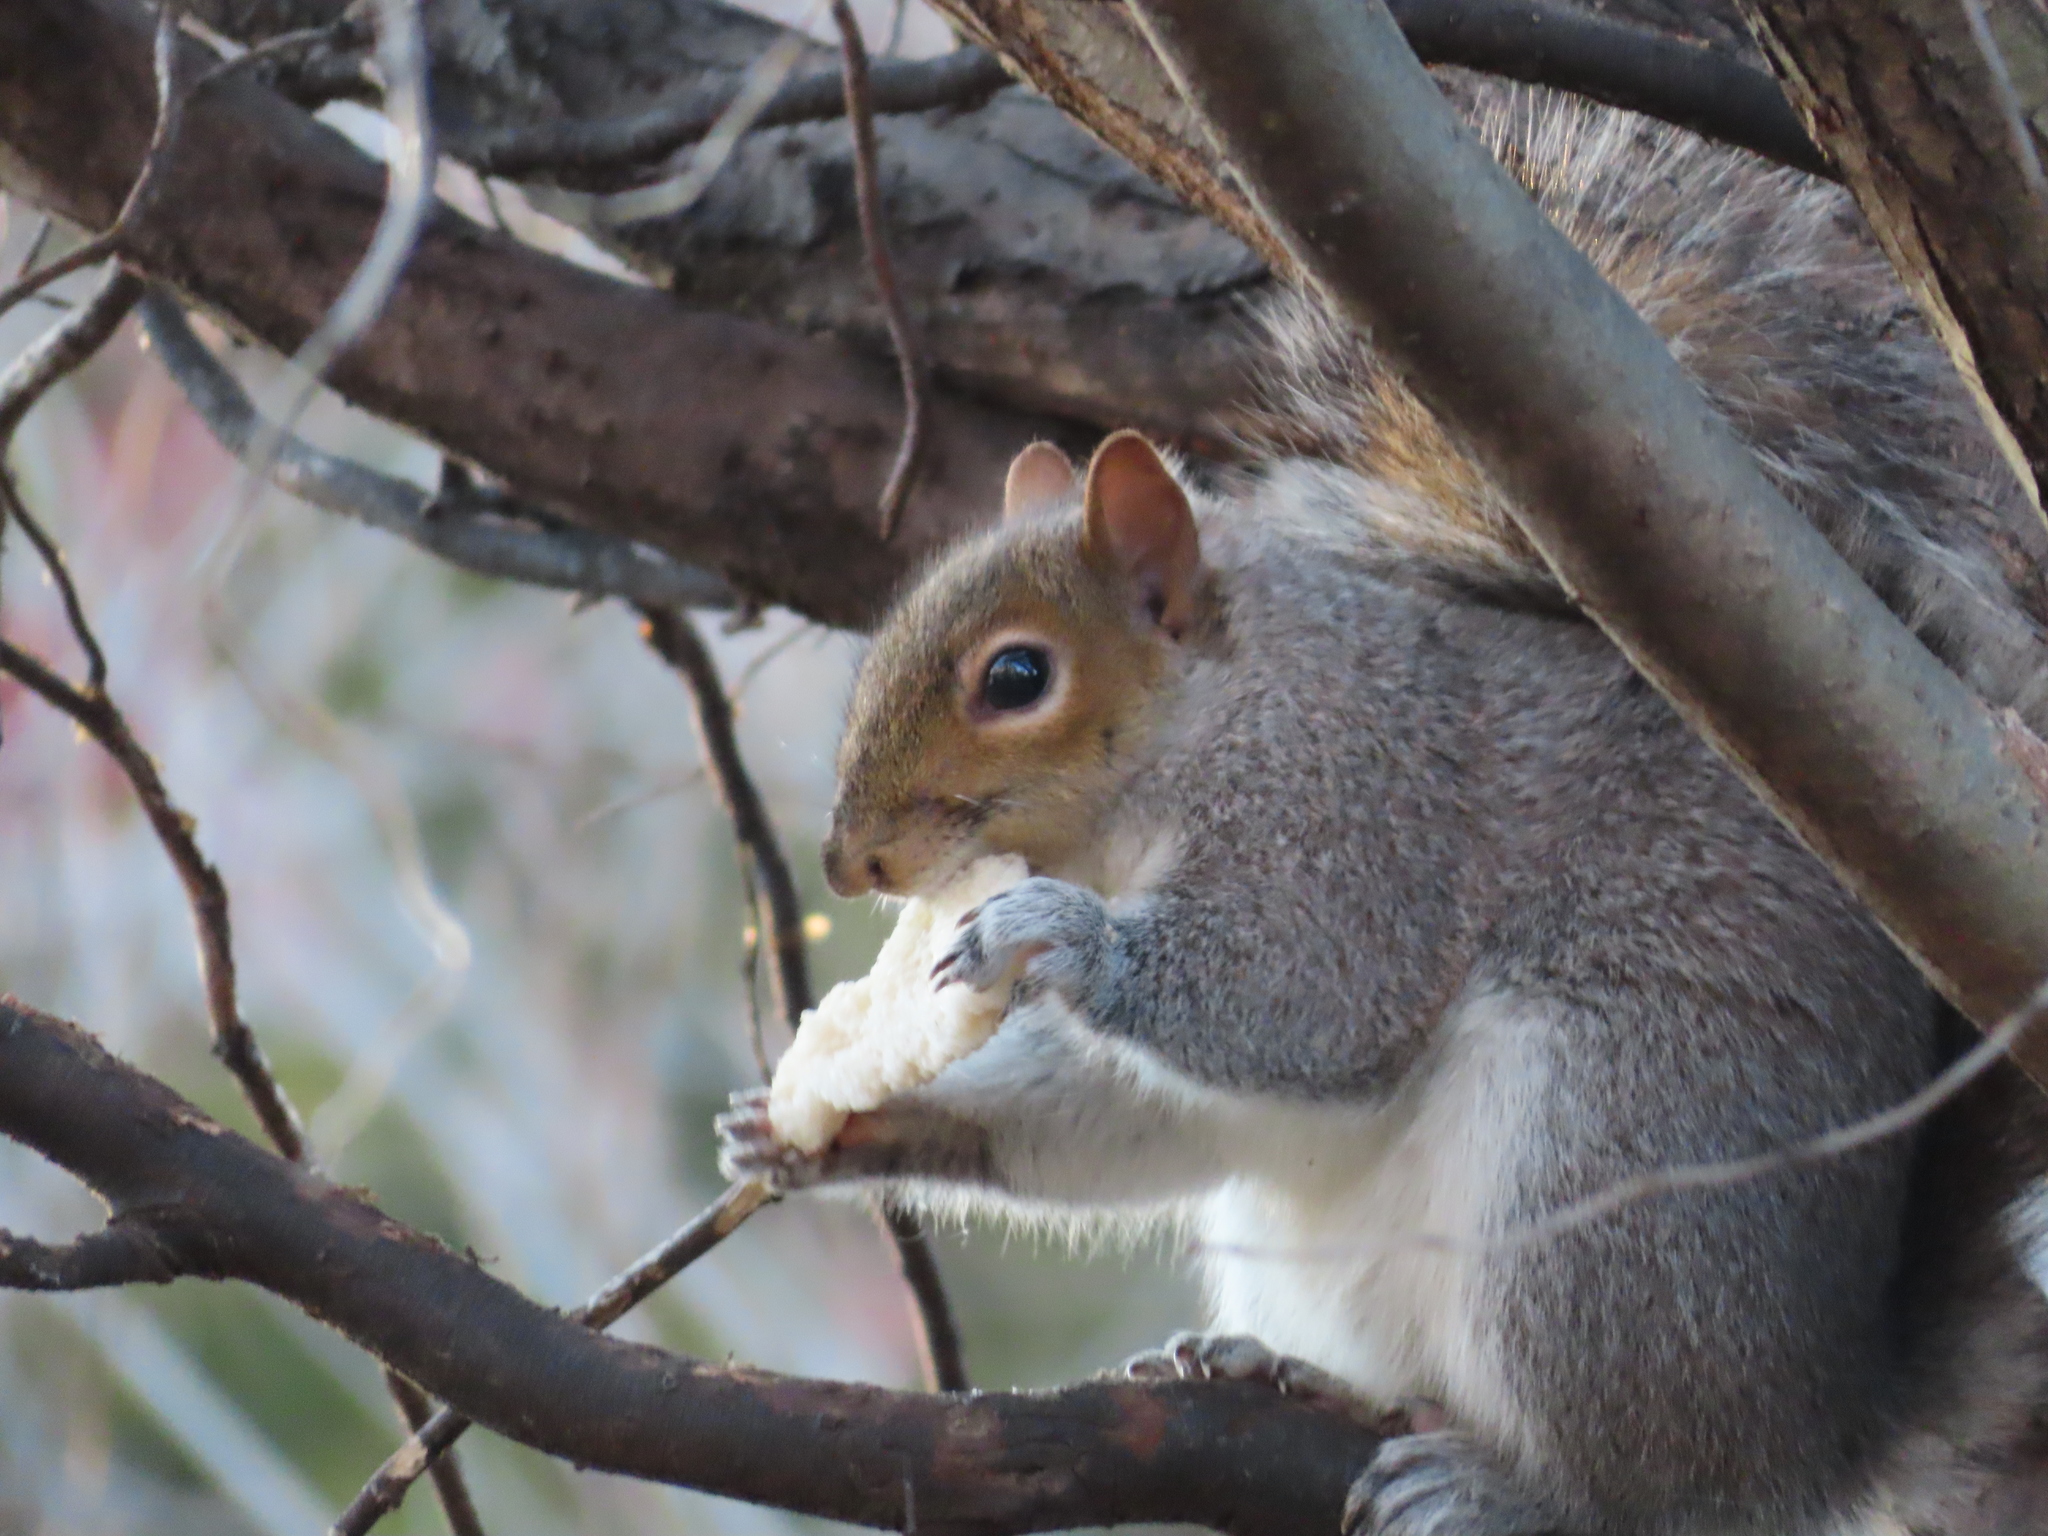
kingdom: Animalia
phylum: Chordata
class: Mammalia
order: Rodentia
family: Sciuridae
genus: Sciurus
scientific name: Sciurus carolinensis
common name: Eastern gray squirrel
